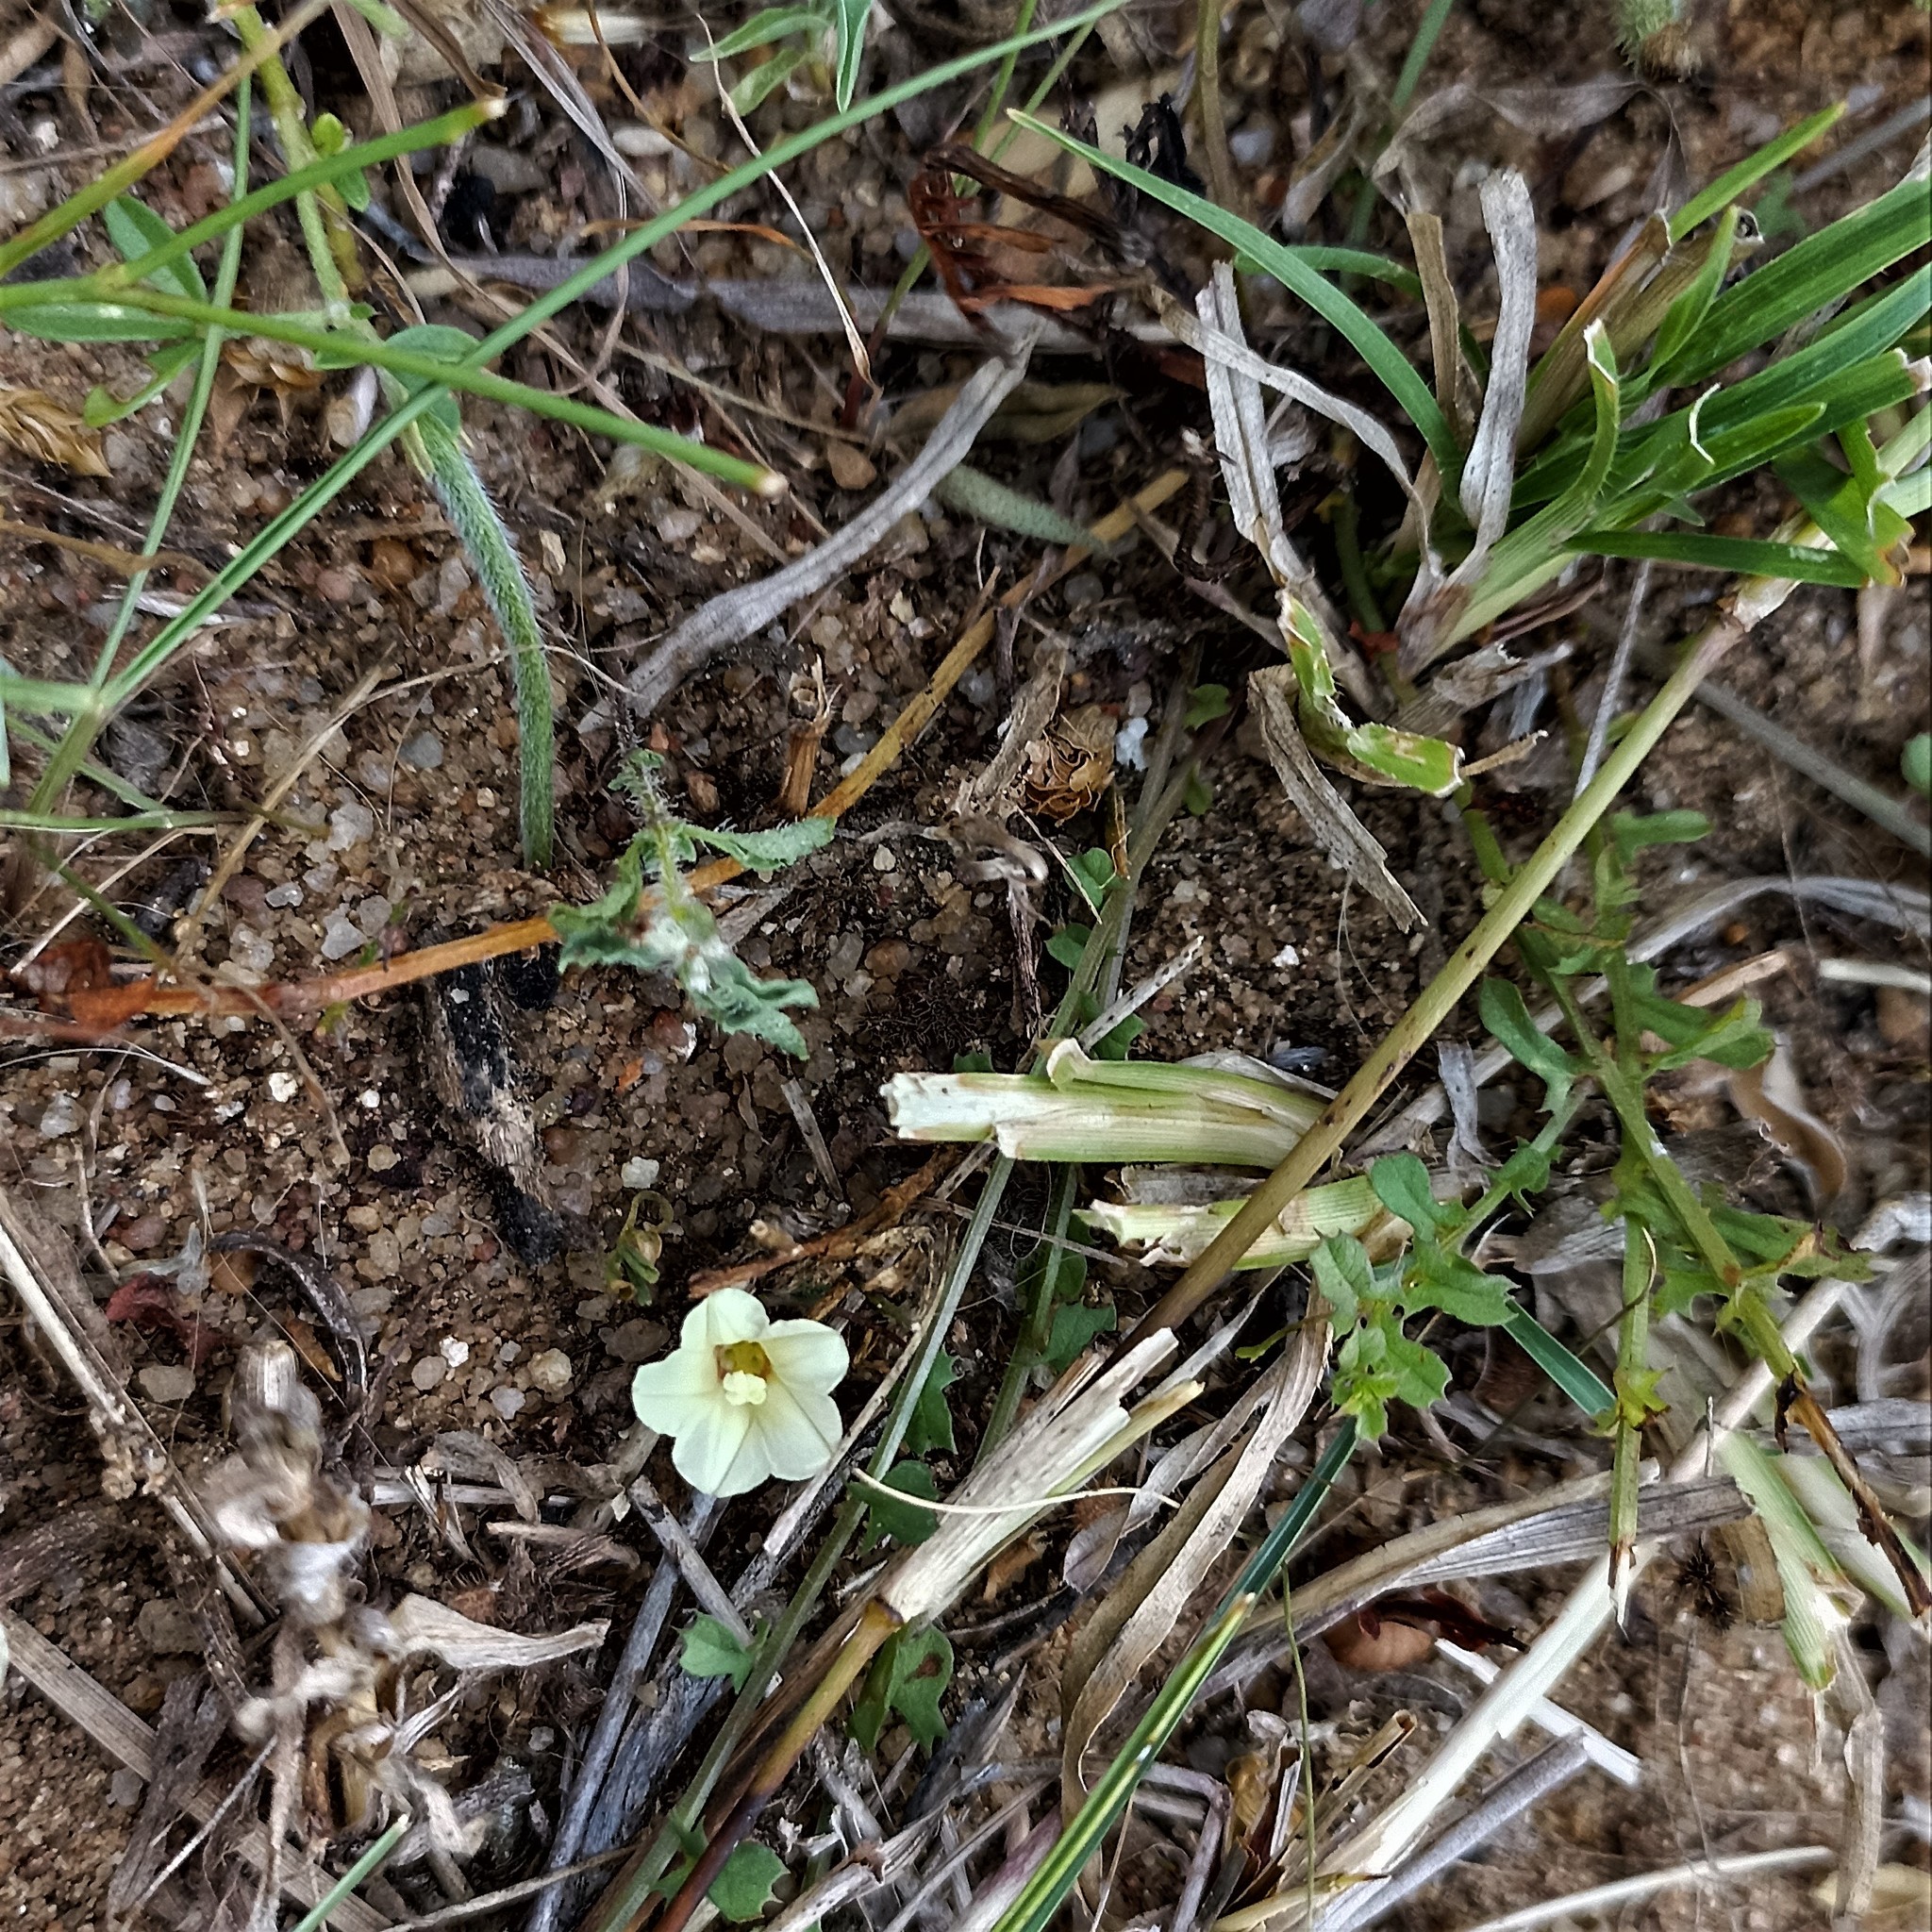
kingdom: Plantae
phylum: Tracheophyta
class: Magnoliopsida
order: Solanales
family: Convolvulaceae
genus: Xenostegia
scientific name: Xenostegia tridentata
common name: African morningvine
